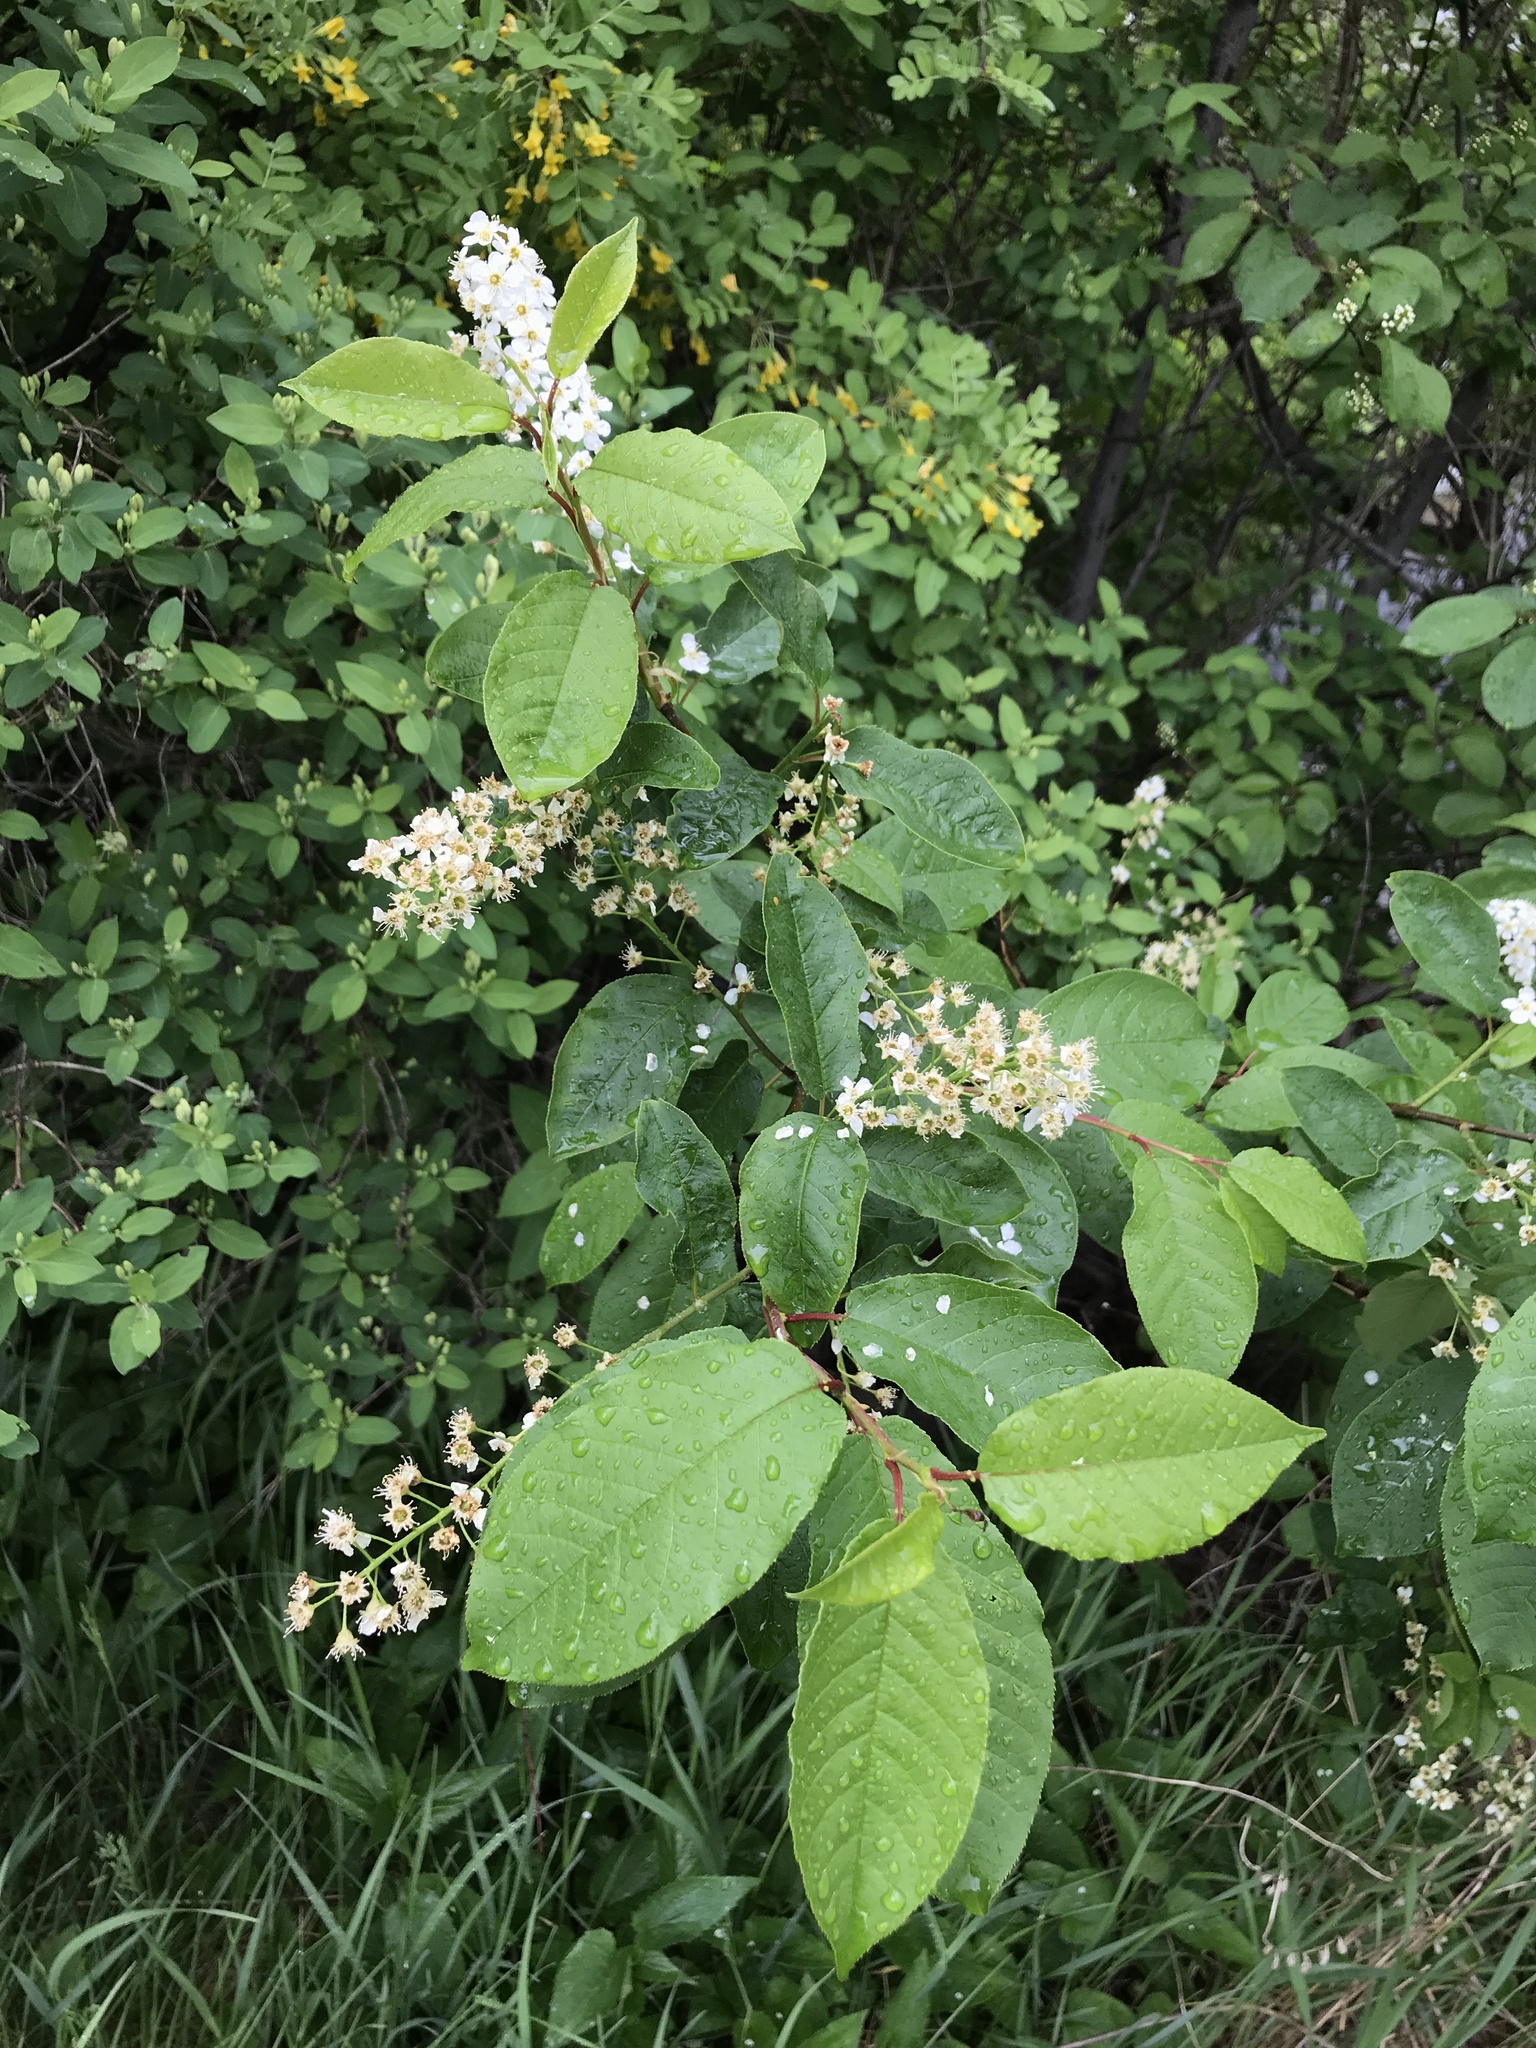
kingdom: Plantae
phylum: Tracheophyta
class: Magnoliopsida
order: Rosales
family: Rosaceae
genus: Prunus
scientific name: Prunus virginiana
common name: Chokecherry
